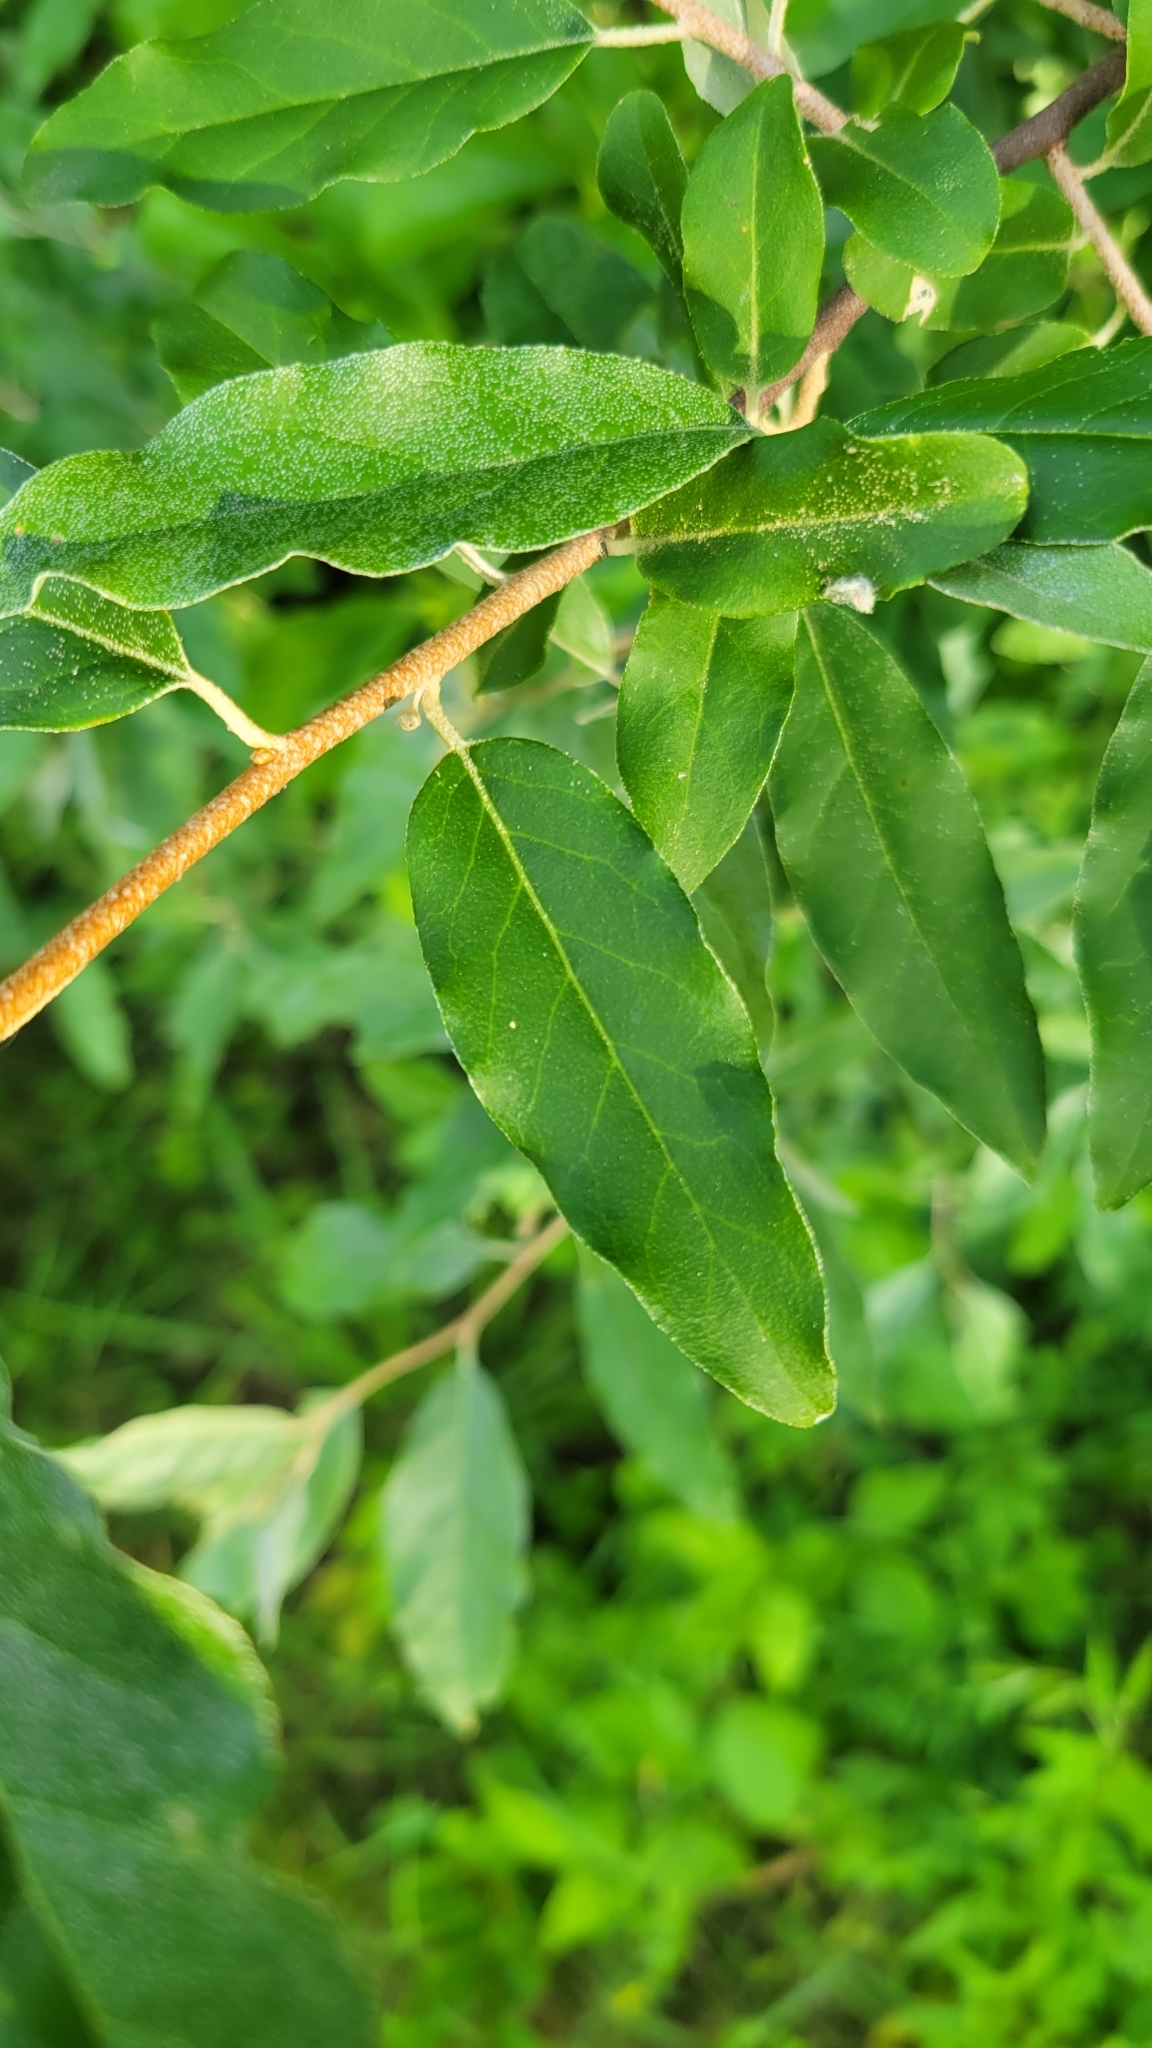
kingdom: Plantae
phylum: Tracheophyta
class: Magnoliopsida
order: Rosales
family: Elaeagnaceae
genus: Elaeagnus
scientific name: Elaeagnus umbellata
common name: Autumn olive
